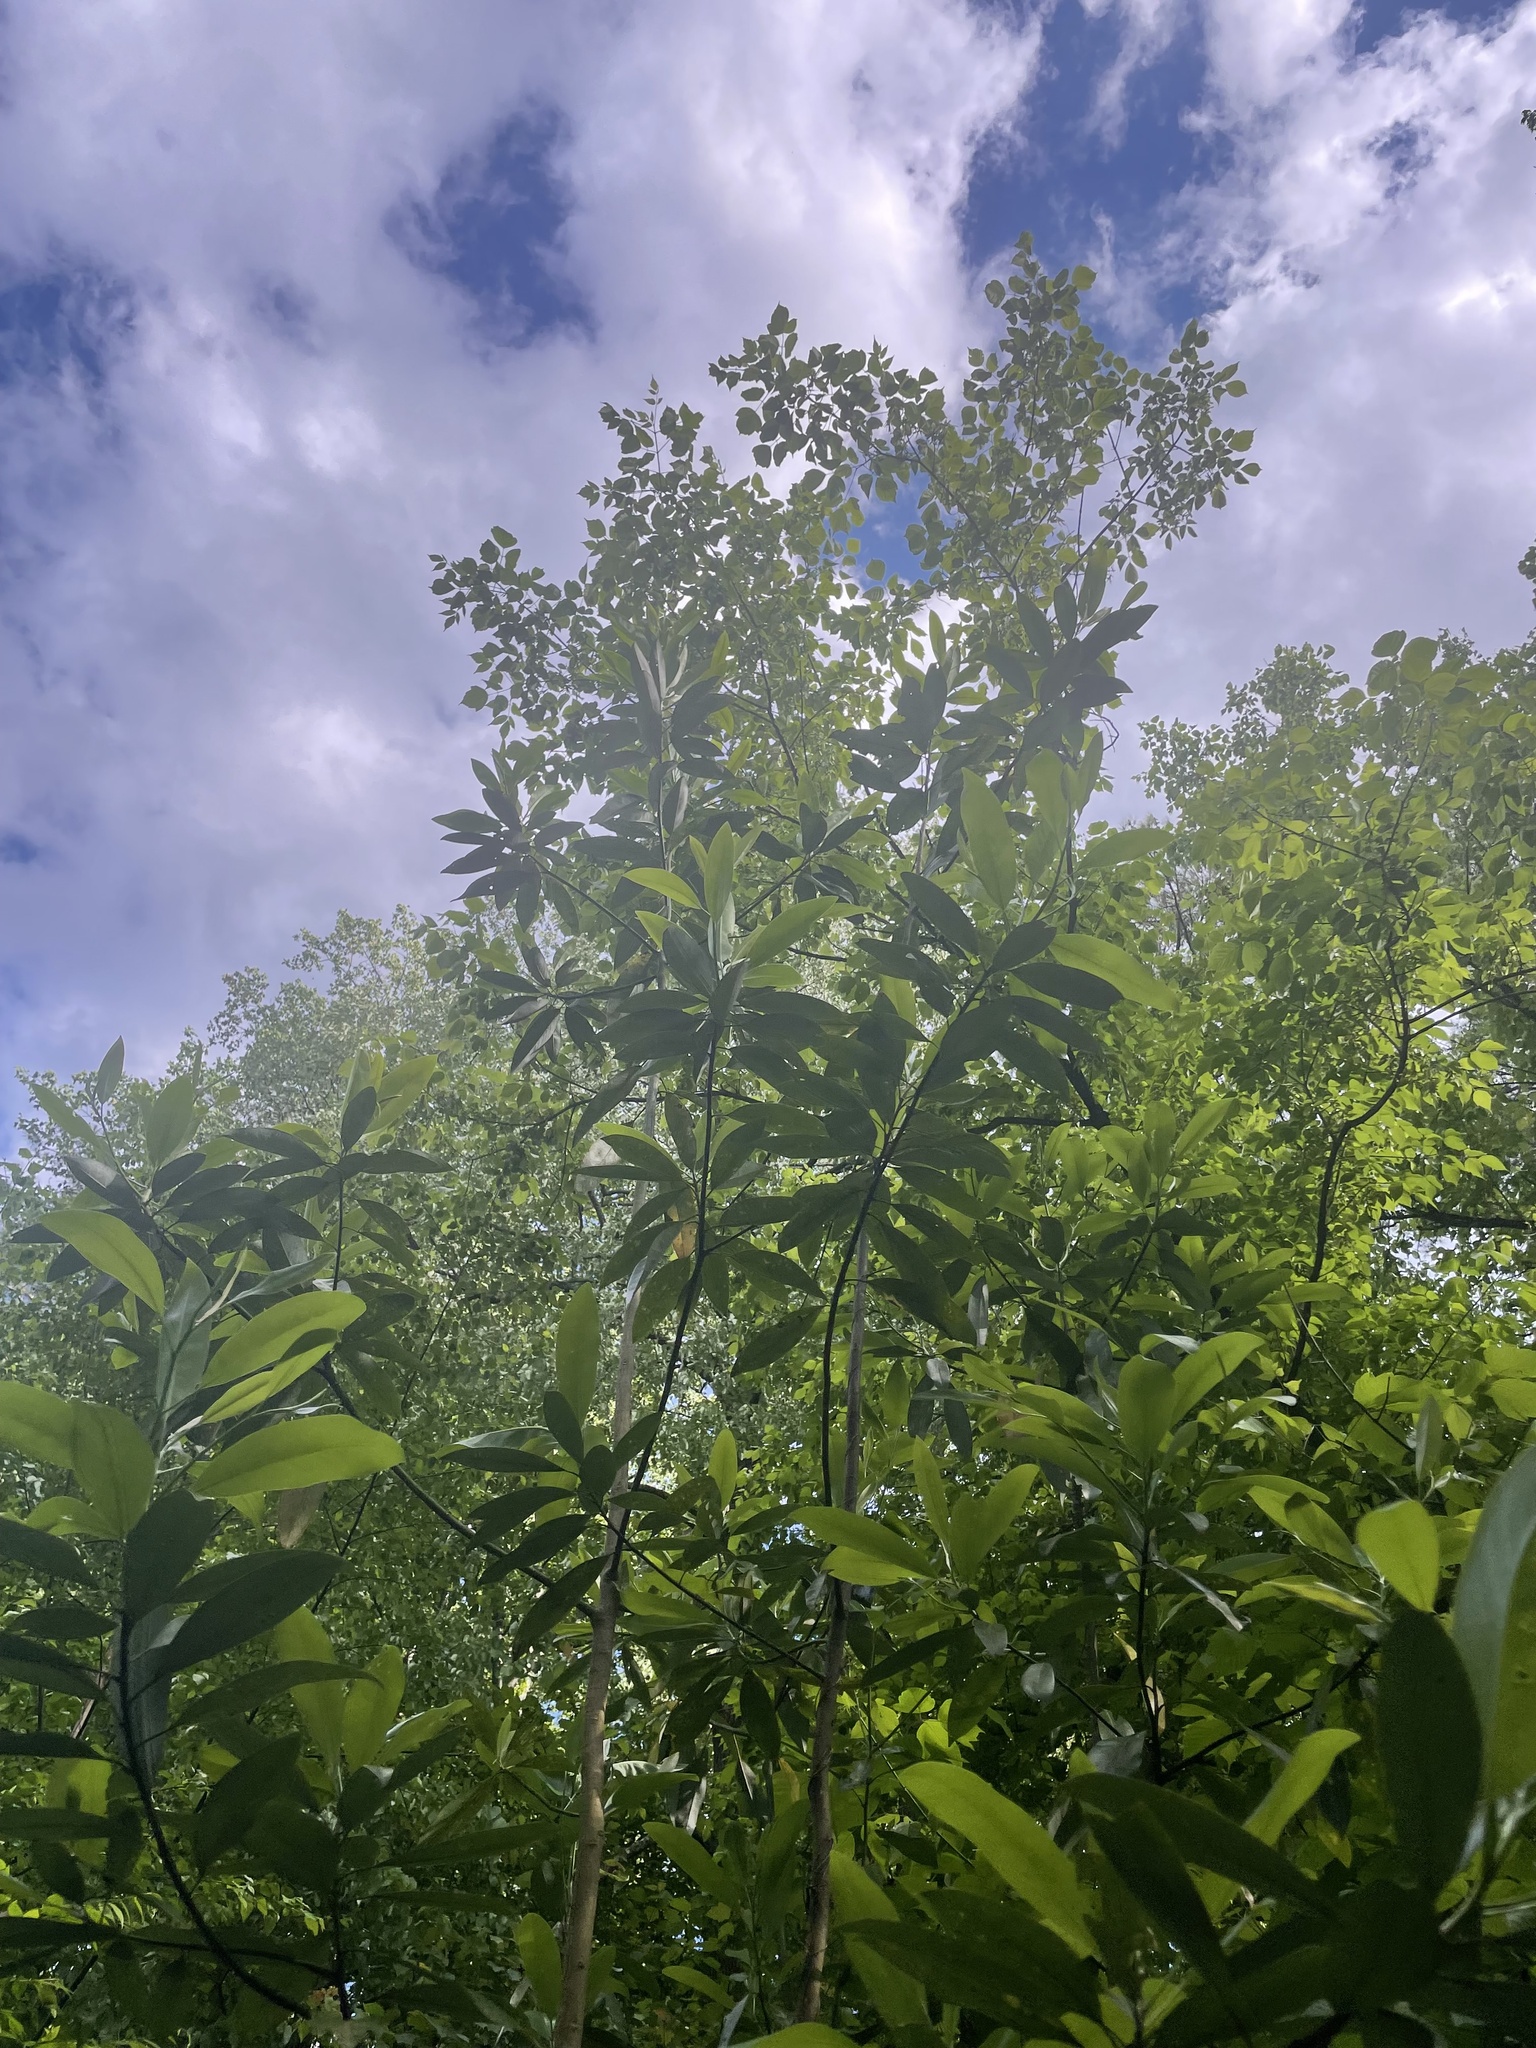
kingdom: Plantae
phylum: Tracheophyta
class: Magnoliopsida
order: Magnoliales
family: Magnoliaceae
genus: Magnolia
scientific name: Magnolia virginiana
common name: Swamp bay
